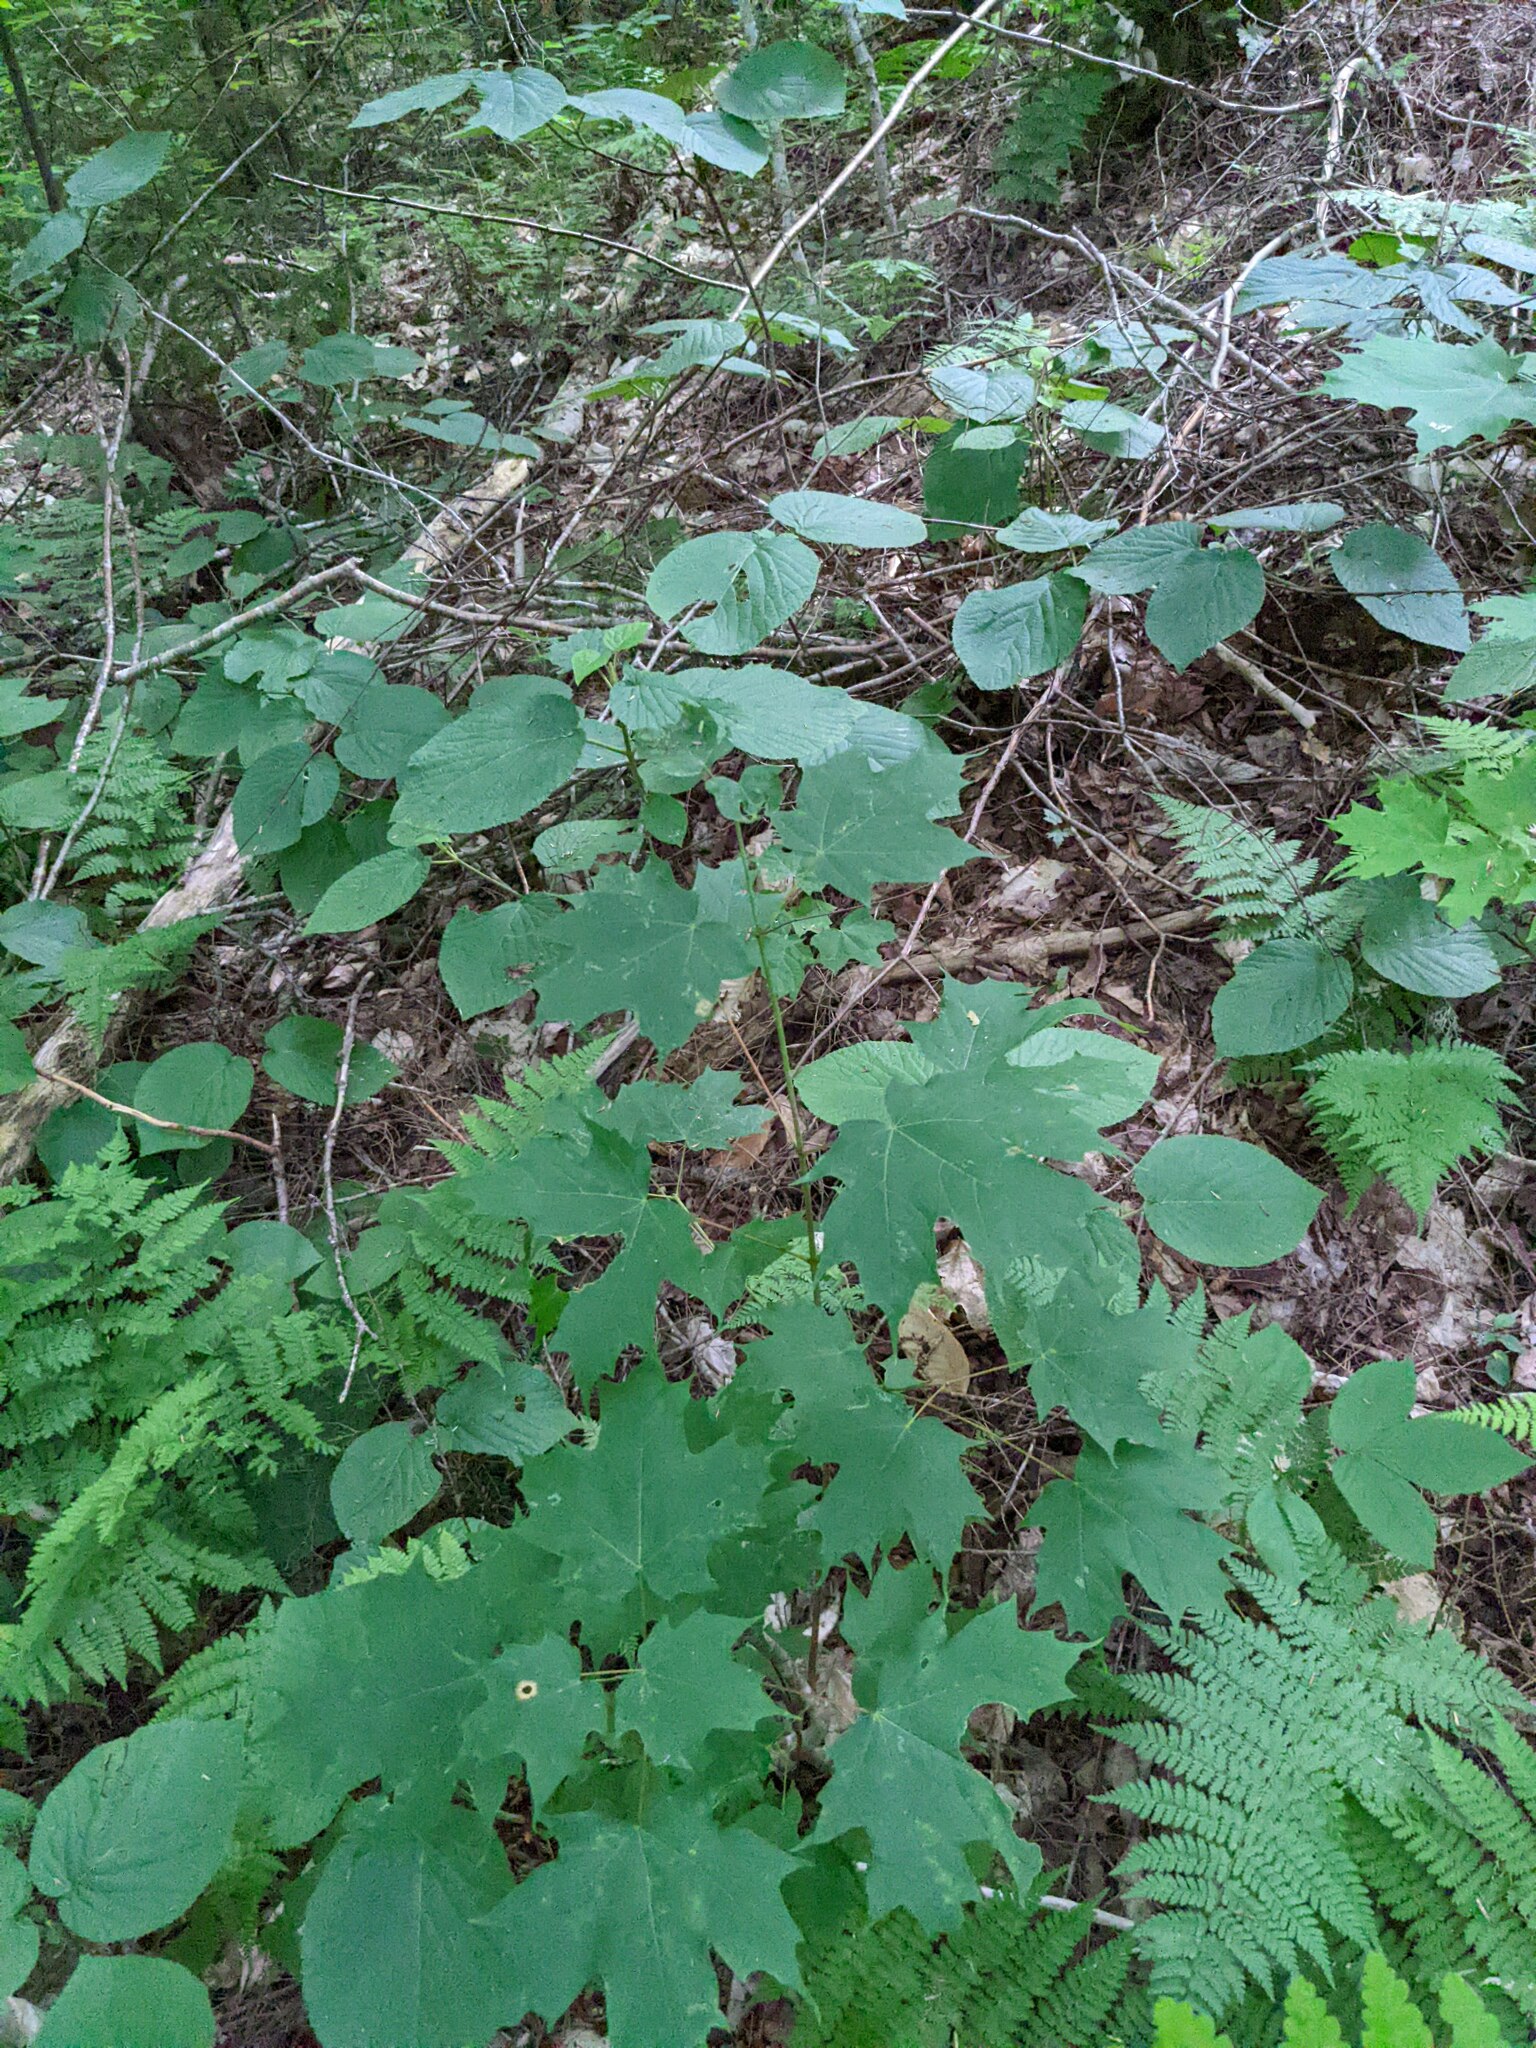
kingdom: Plantae
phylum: Tracheophyta
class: Magnoliopsida
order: Sapindales
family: Sapindaceae
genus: Acer
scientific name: Acer saccharum
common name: Sugar maple
